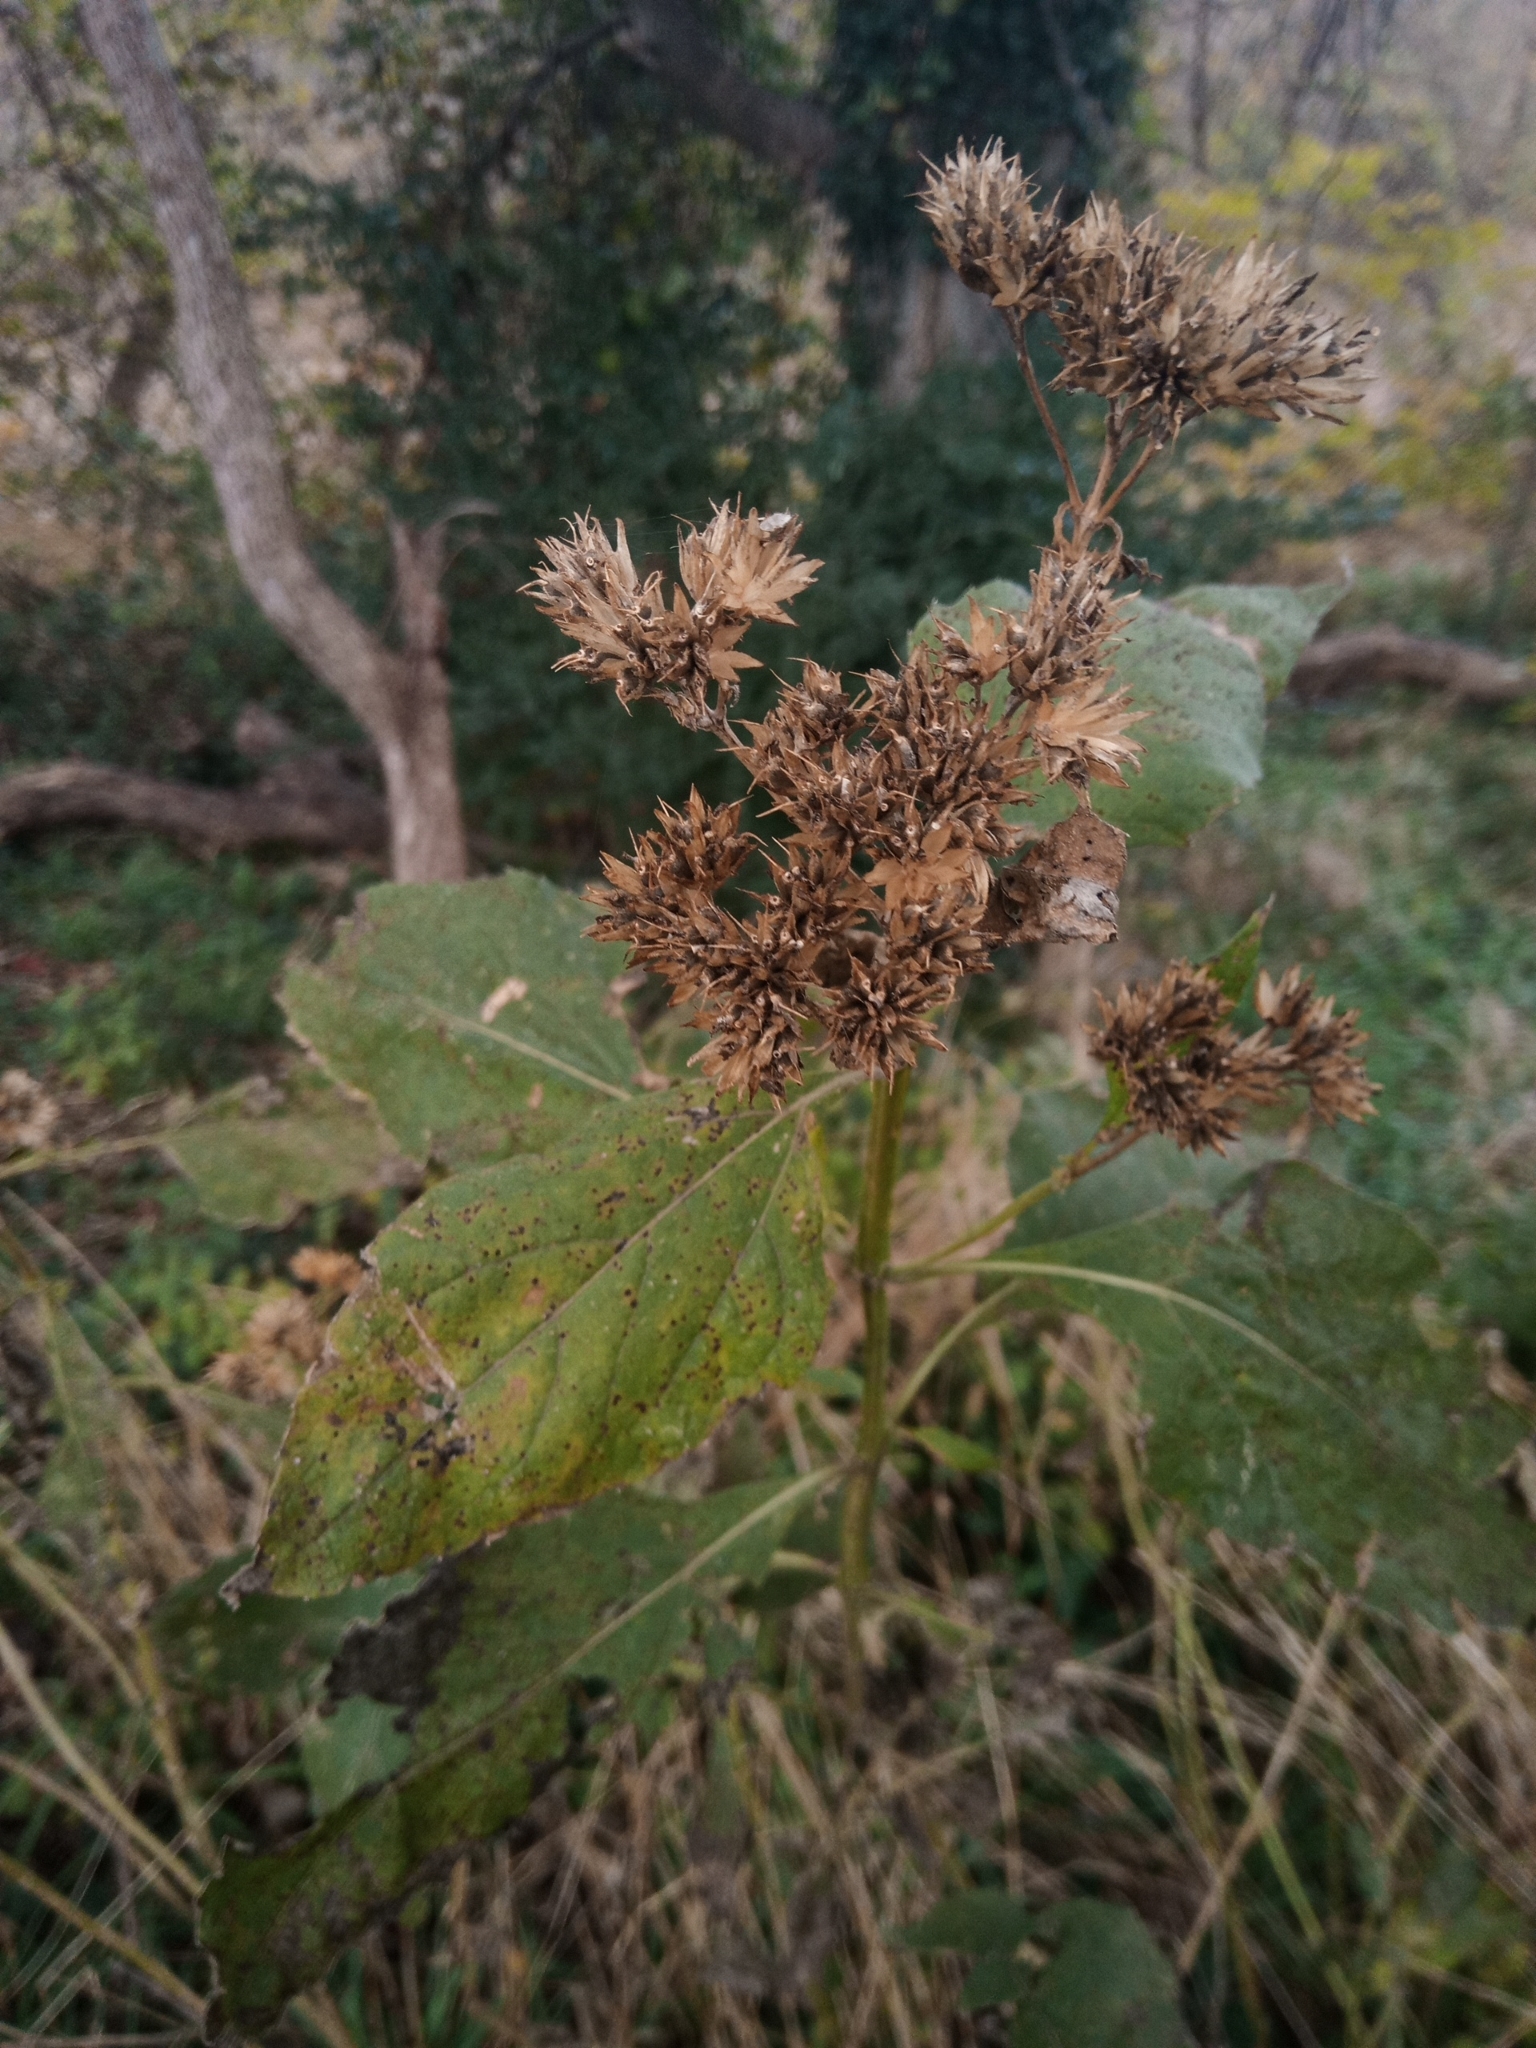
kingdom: Plantae
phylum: Tracheophyta
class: Magnoliopsida
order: Asterales
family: Asteraceae
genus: Verbesina
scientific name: Verbesina occidentalis
